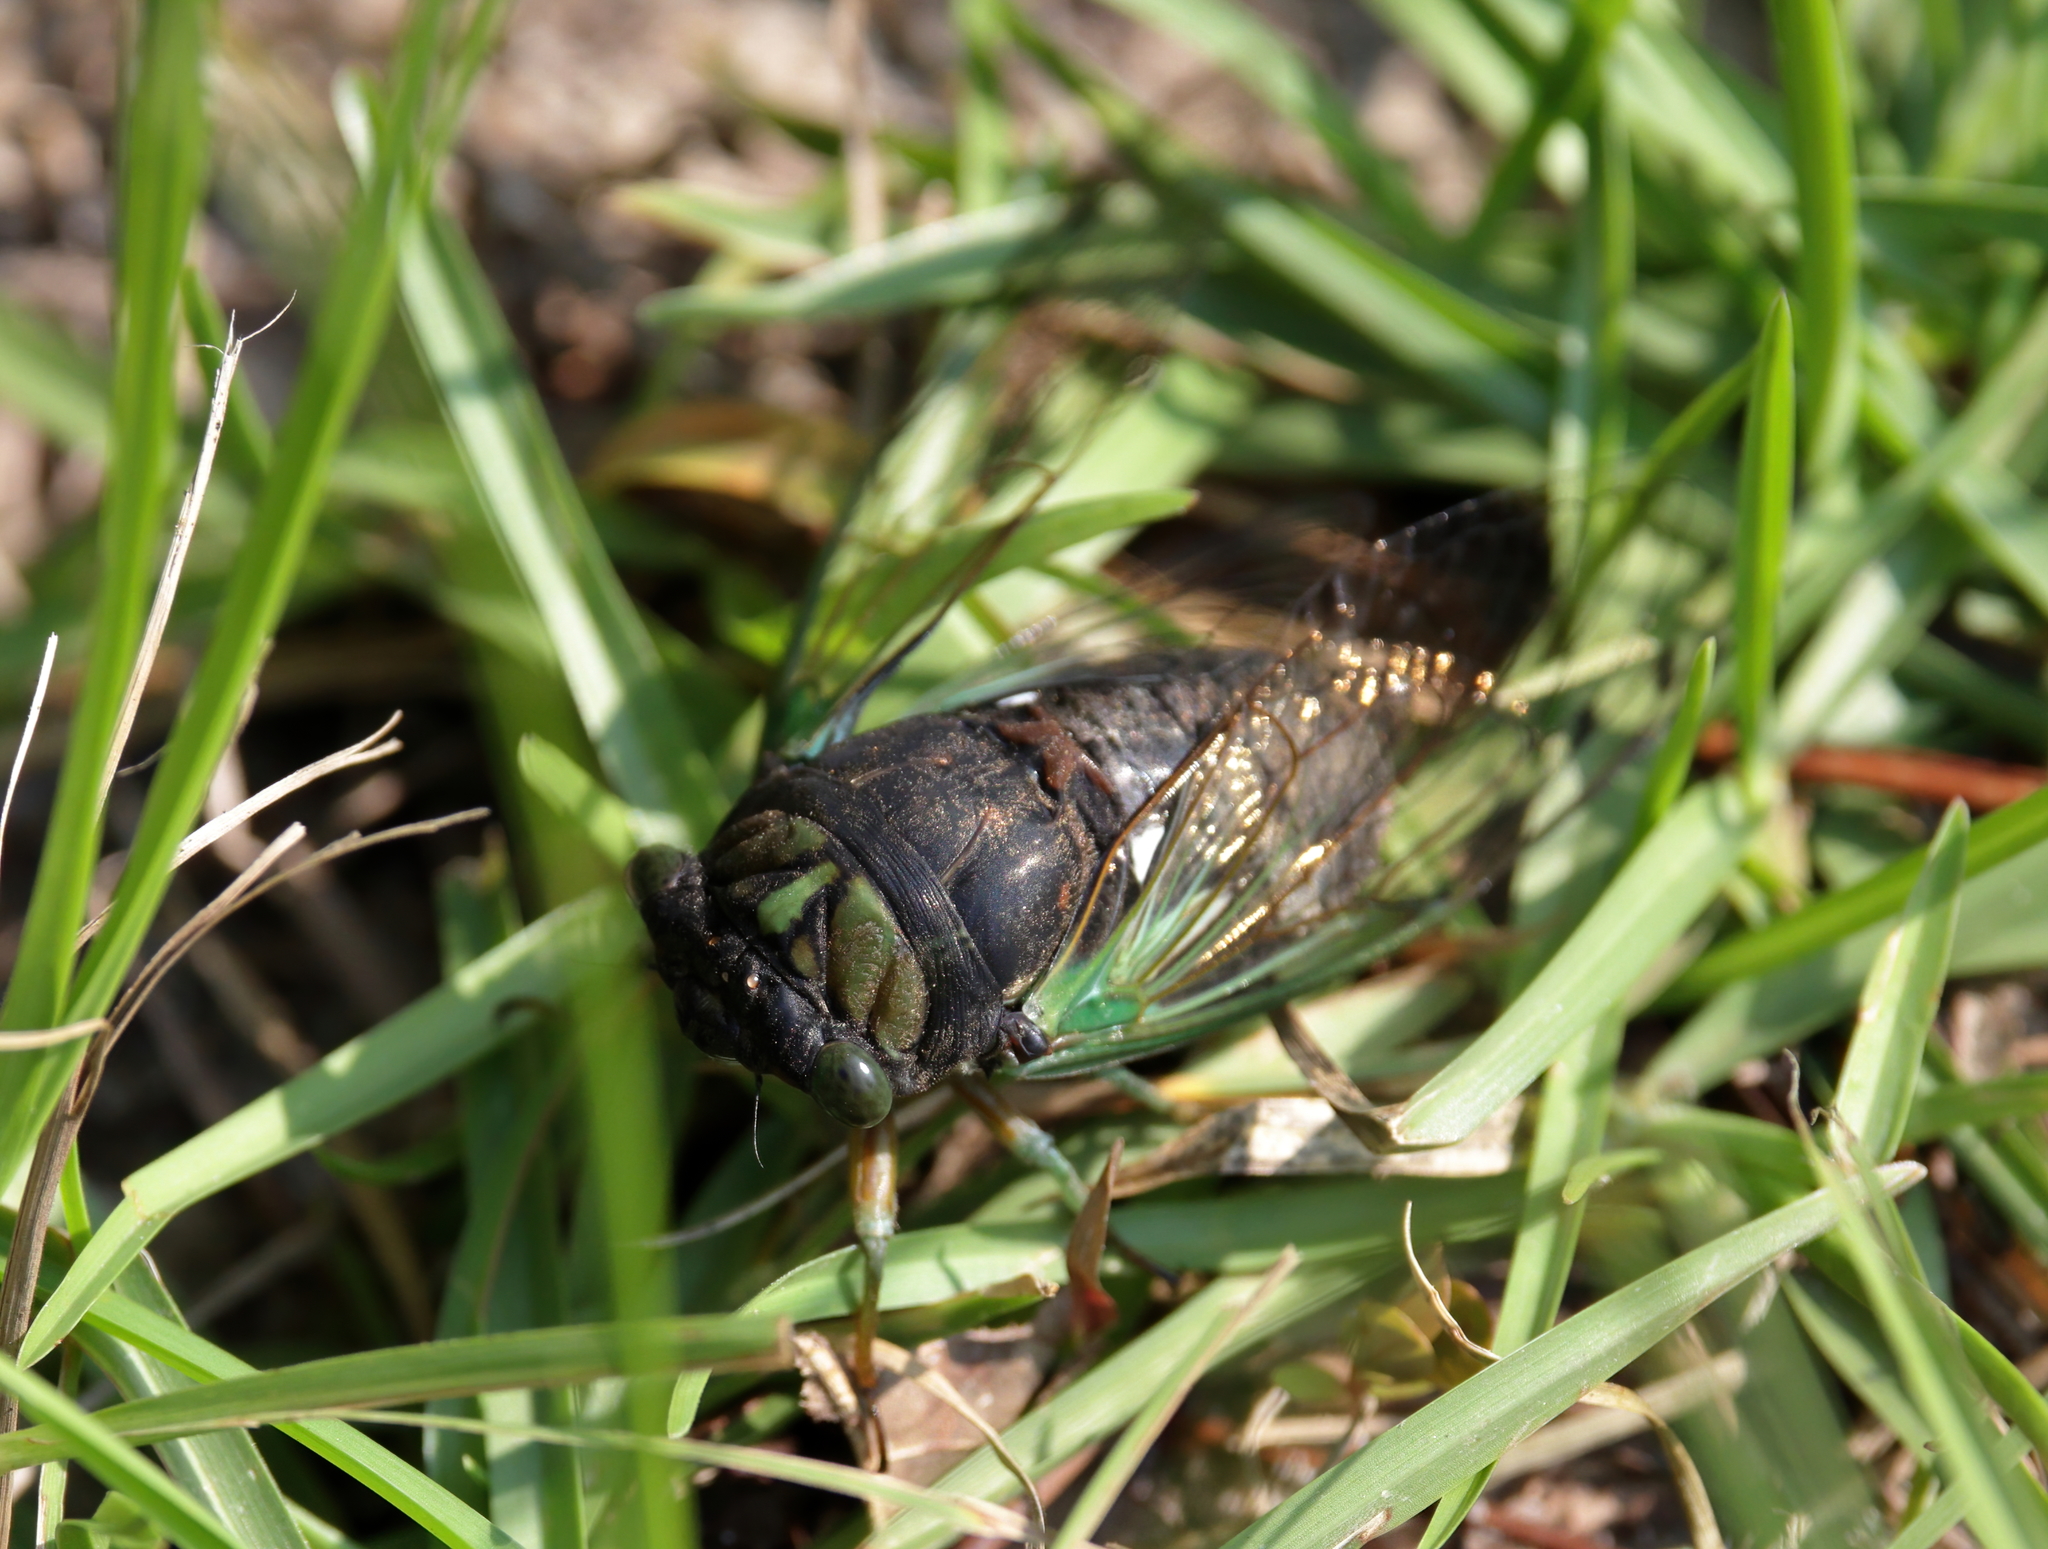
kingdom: Animalia
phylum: Arthropoda
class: Insecta
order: Hemiptera
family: Cicadidae
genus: Neotibicen
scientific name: Neotibicen tibicen
